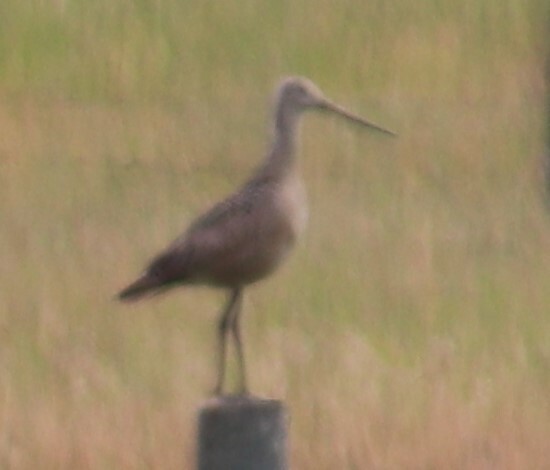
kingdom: Animalia
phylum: Chordata
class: Aves
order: Charadriiformes
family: Scolopacidae
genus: Limosa
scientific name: Limosa fedoa
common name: Marbled godwit
